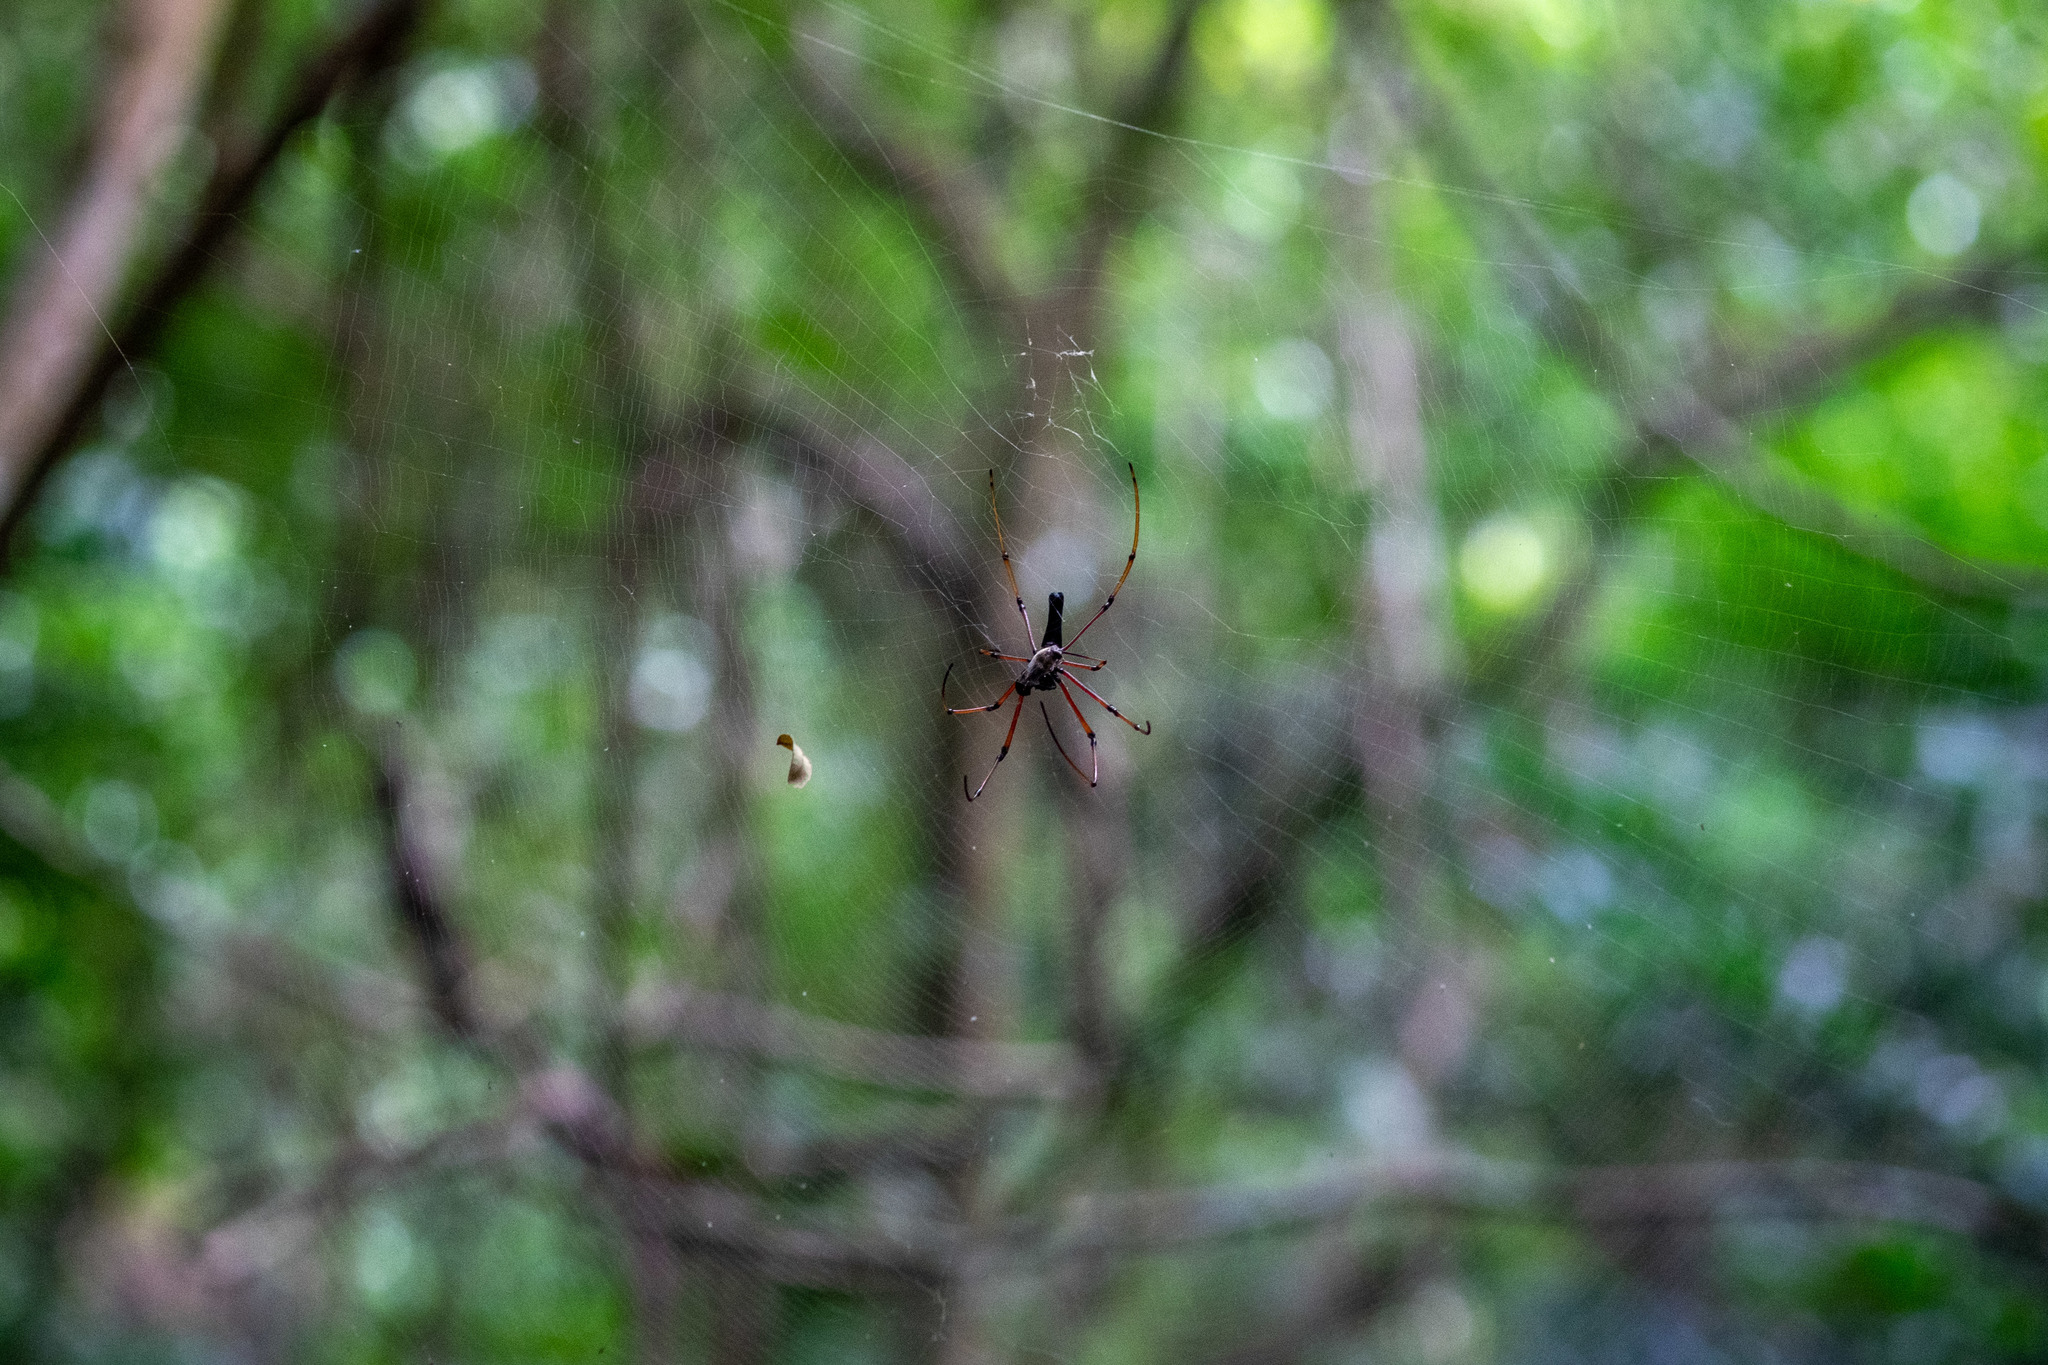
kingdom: Animalia
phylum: Arthropoda
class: Arachnida
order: Araneae
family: Araneidae
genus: Nephila
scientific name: Nephila kuhli
